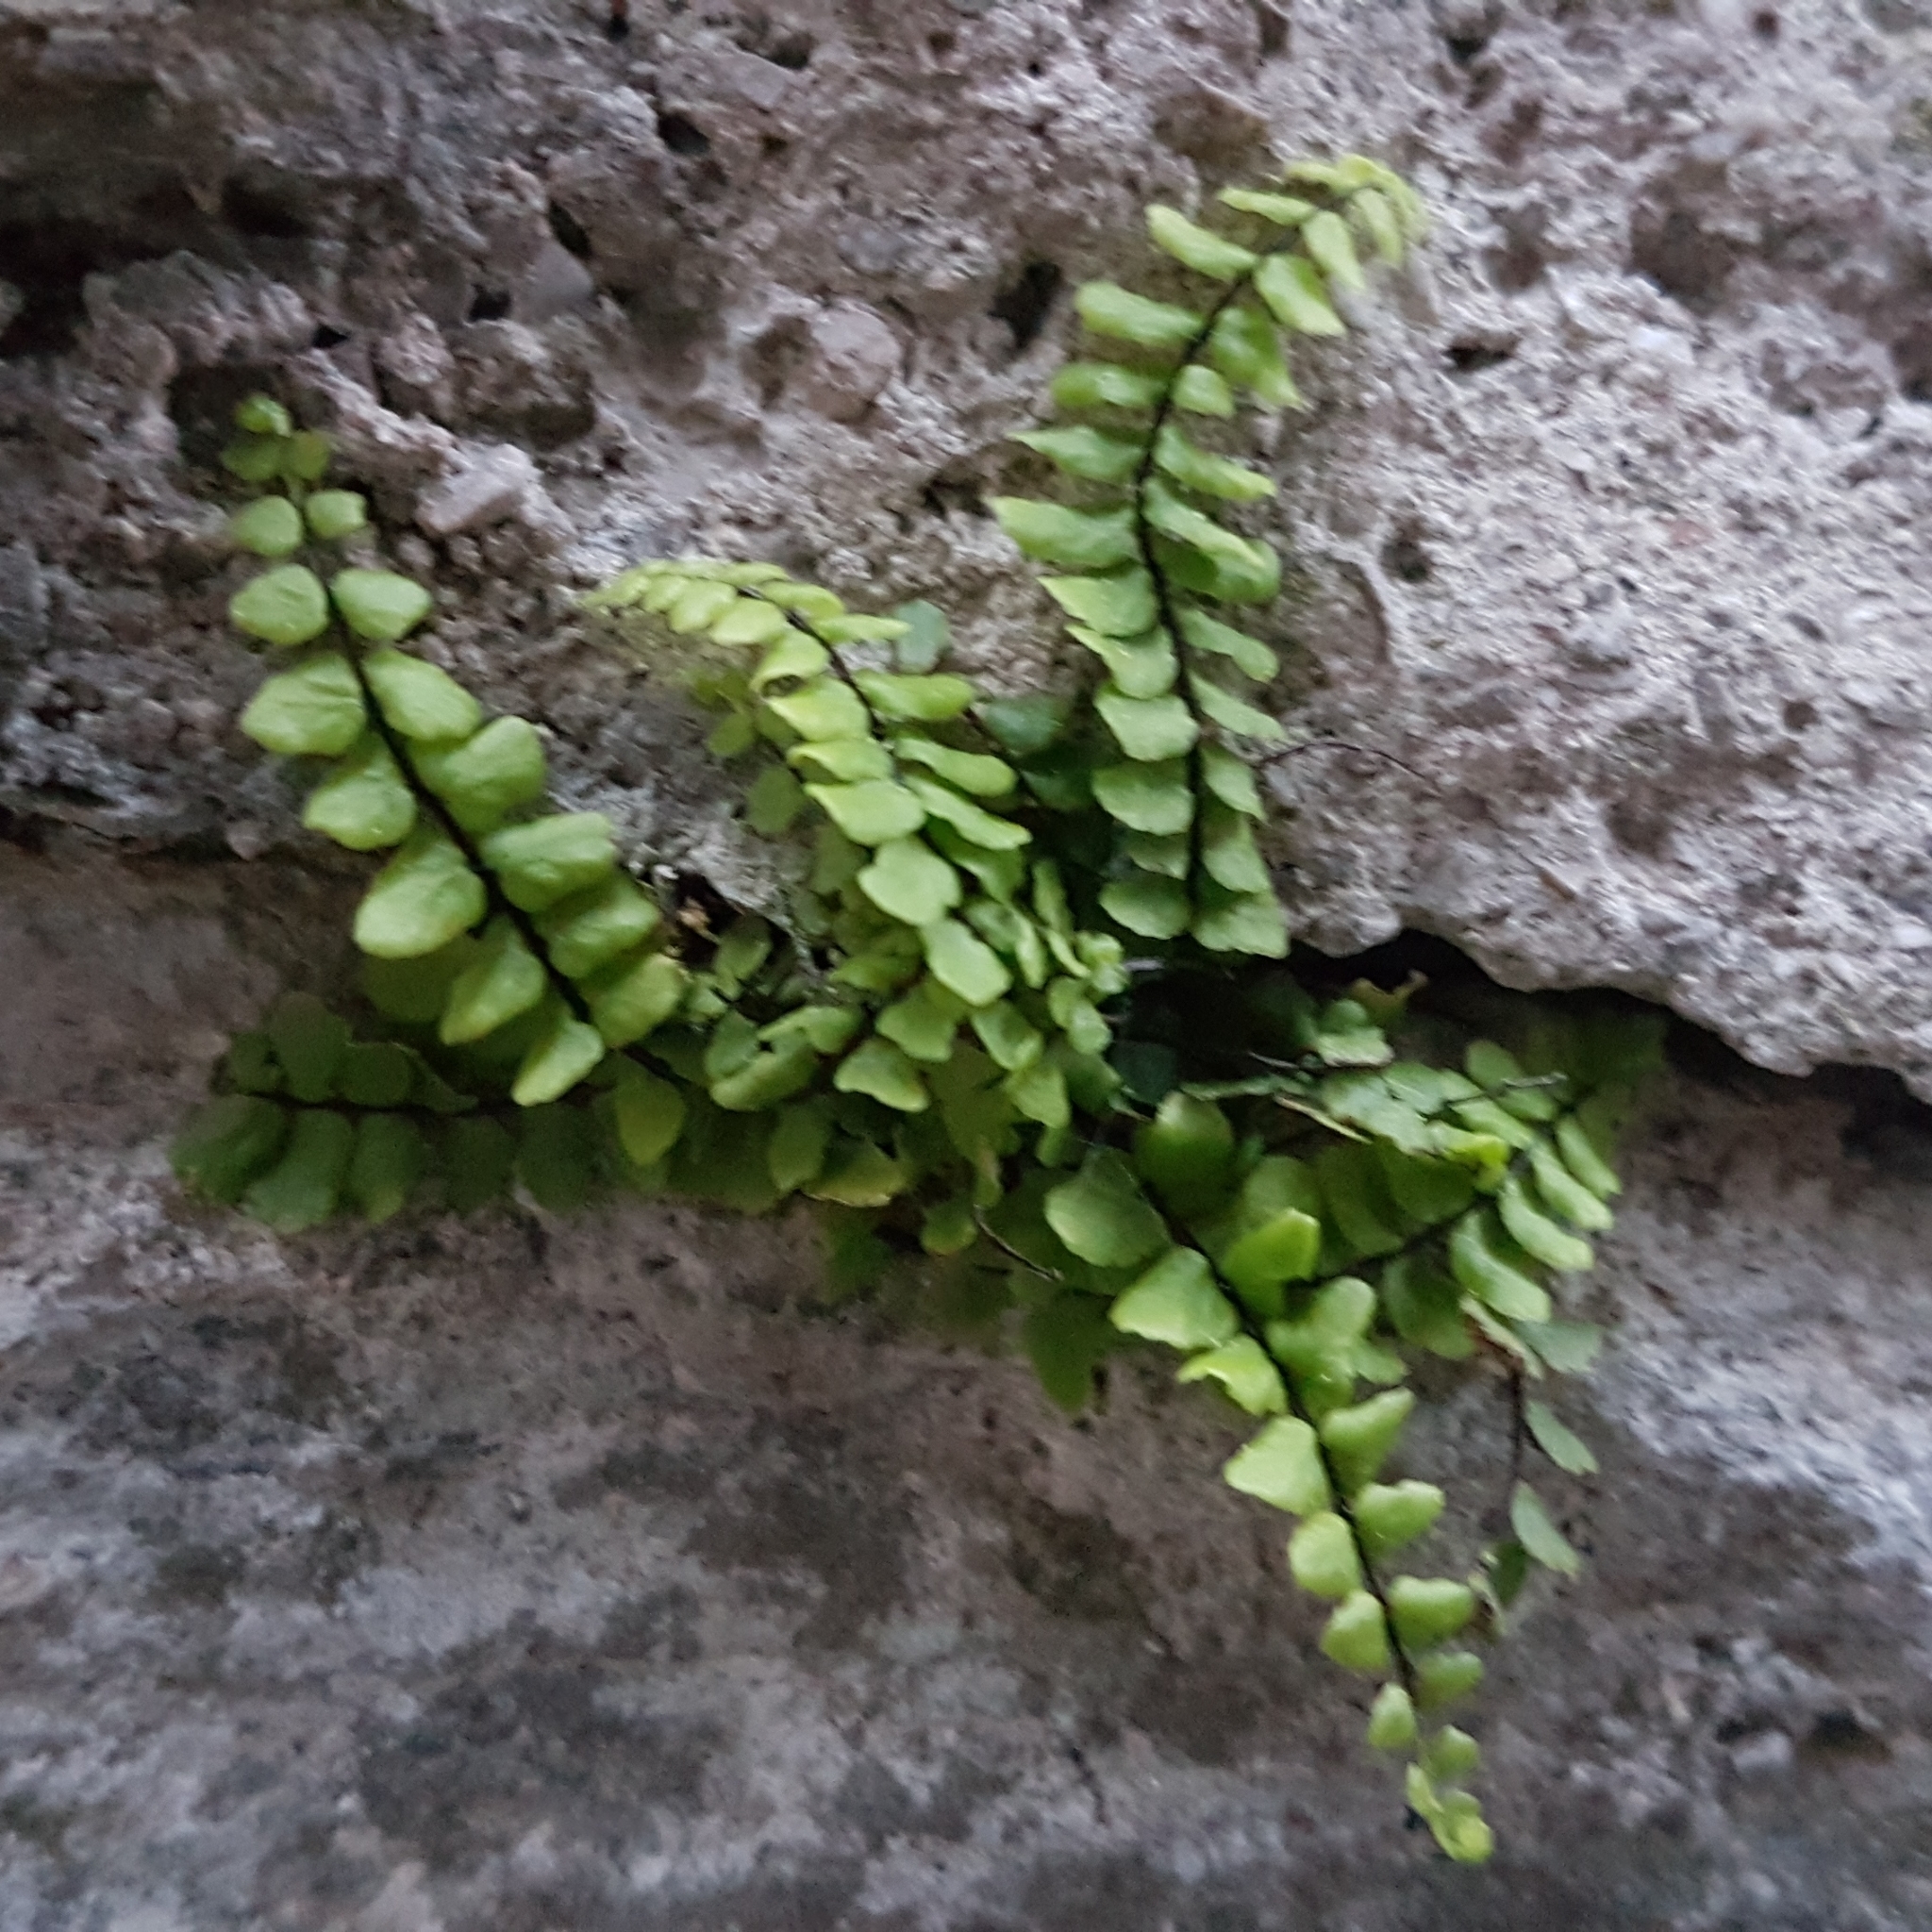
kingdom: Plantae
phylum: Tracheophyta
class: Polypodiopsida
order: Polypodiales
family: Aspleniaceae
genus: Asplenium
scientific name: Asplenium trichomanes
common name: Maidenhair spleenwort
